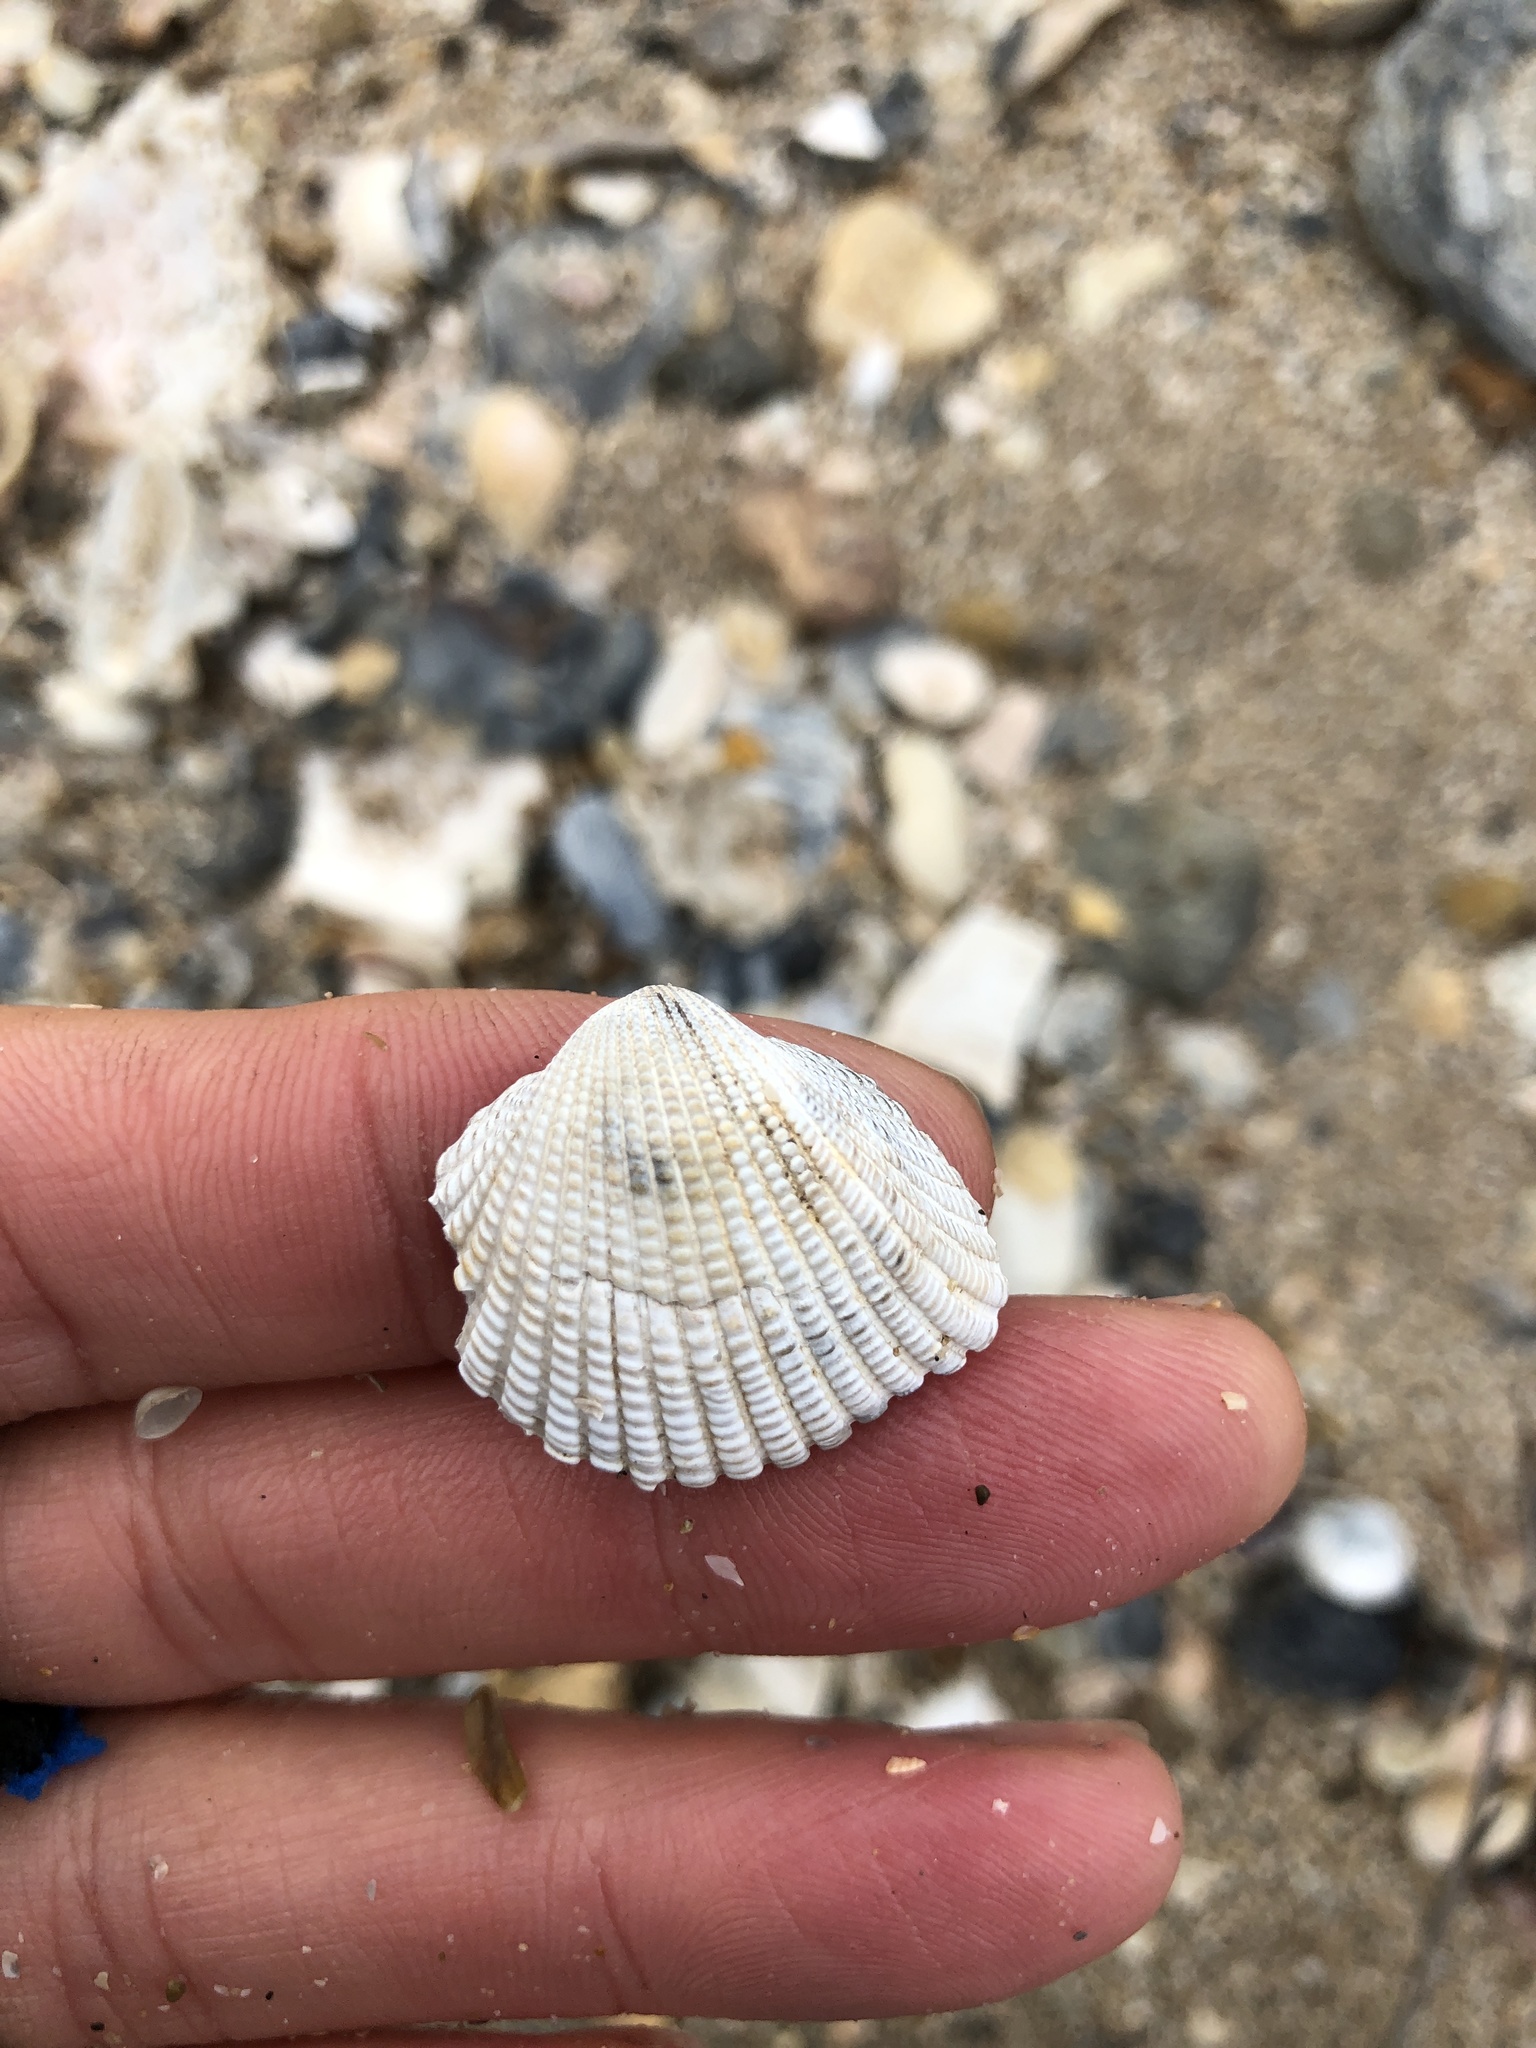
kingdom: Animalia
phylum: Mollusca
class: Bivalvia
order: Arcida
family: Arcidae
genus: Anadara
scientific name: Anadara brasiliana
